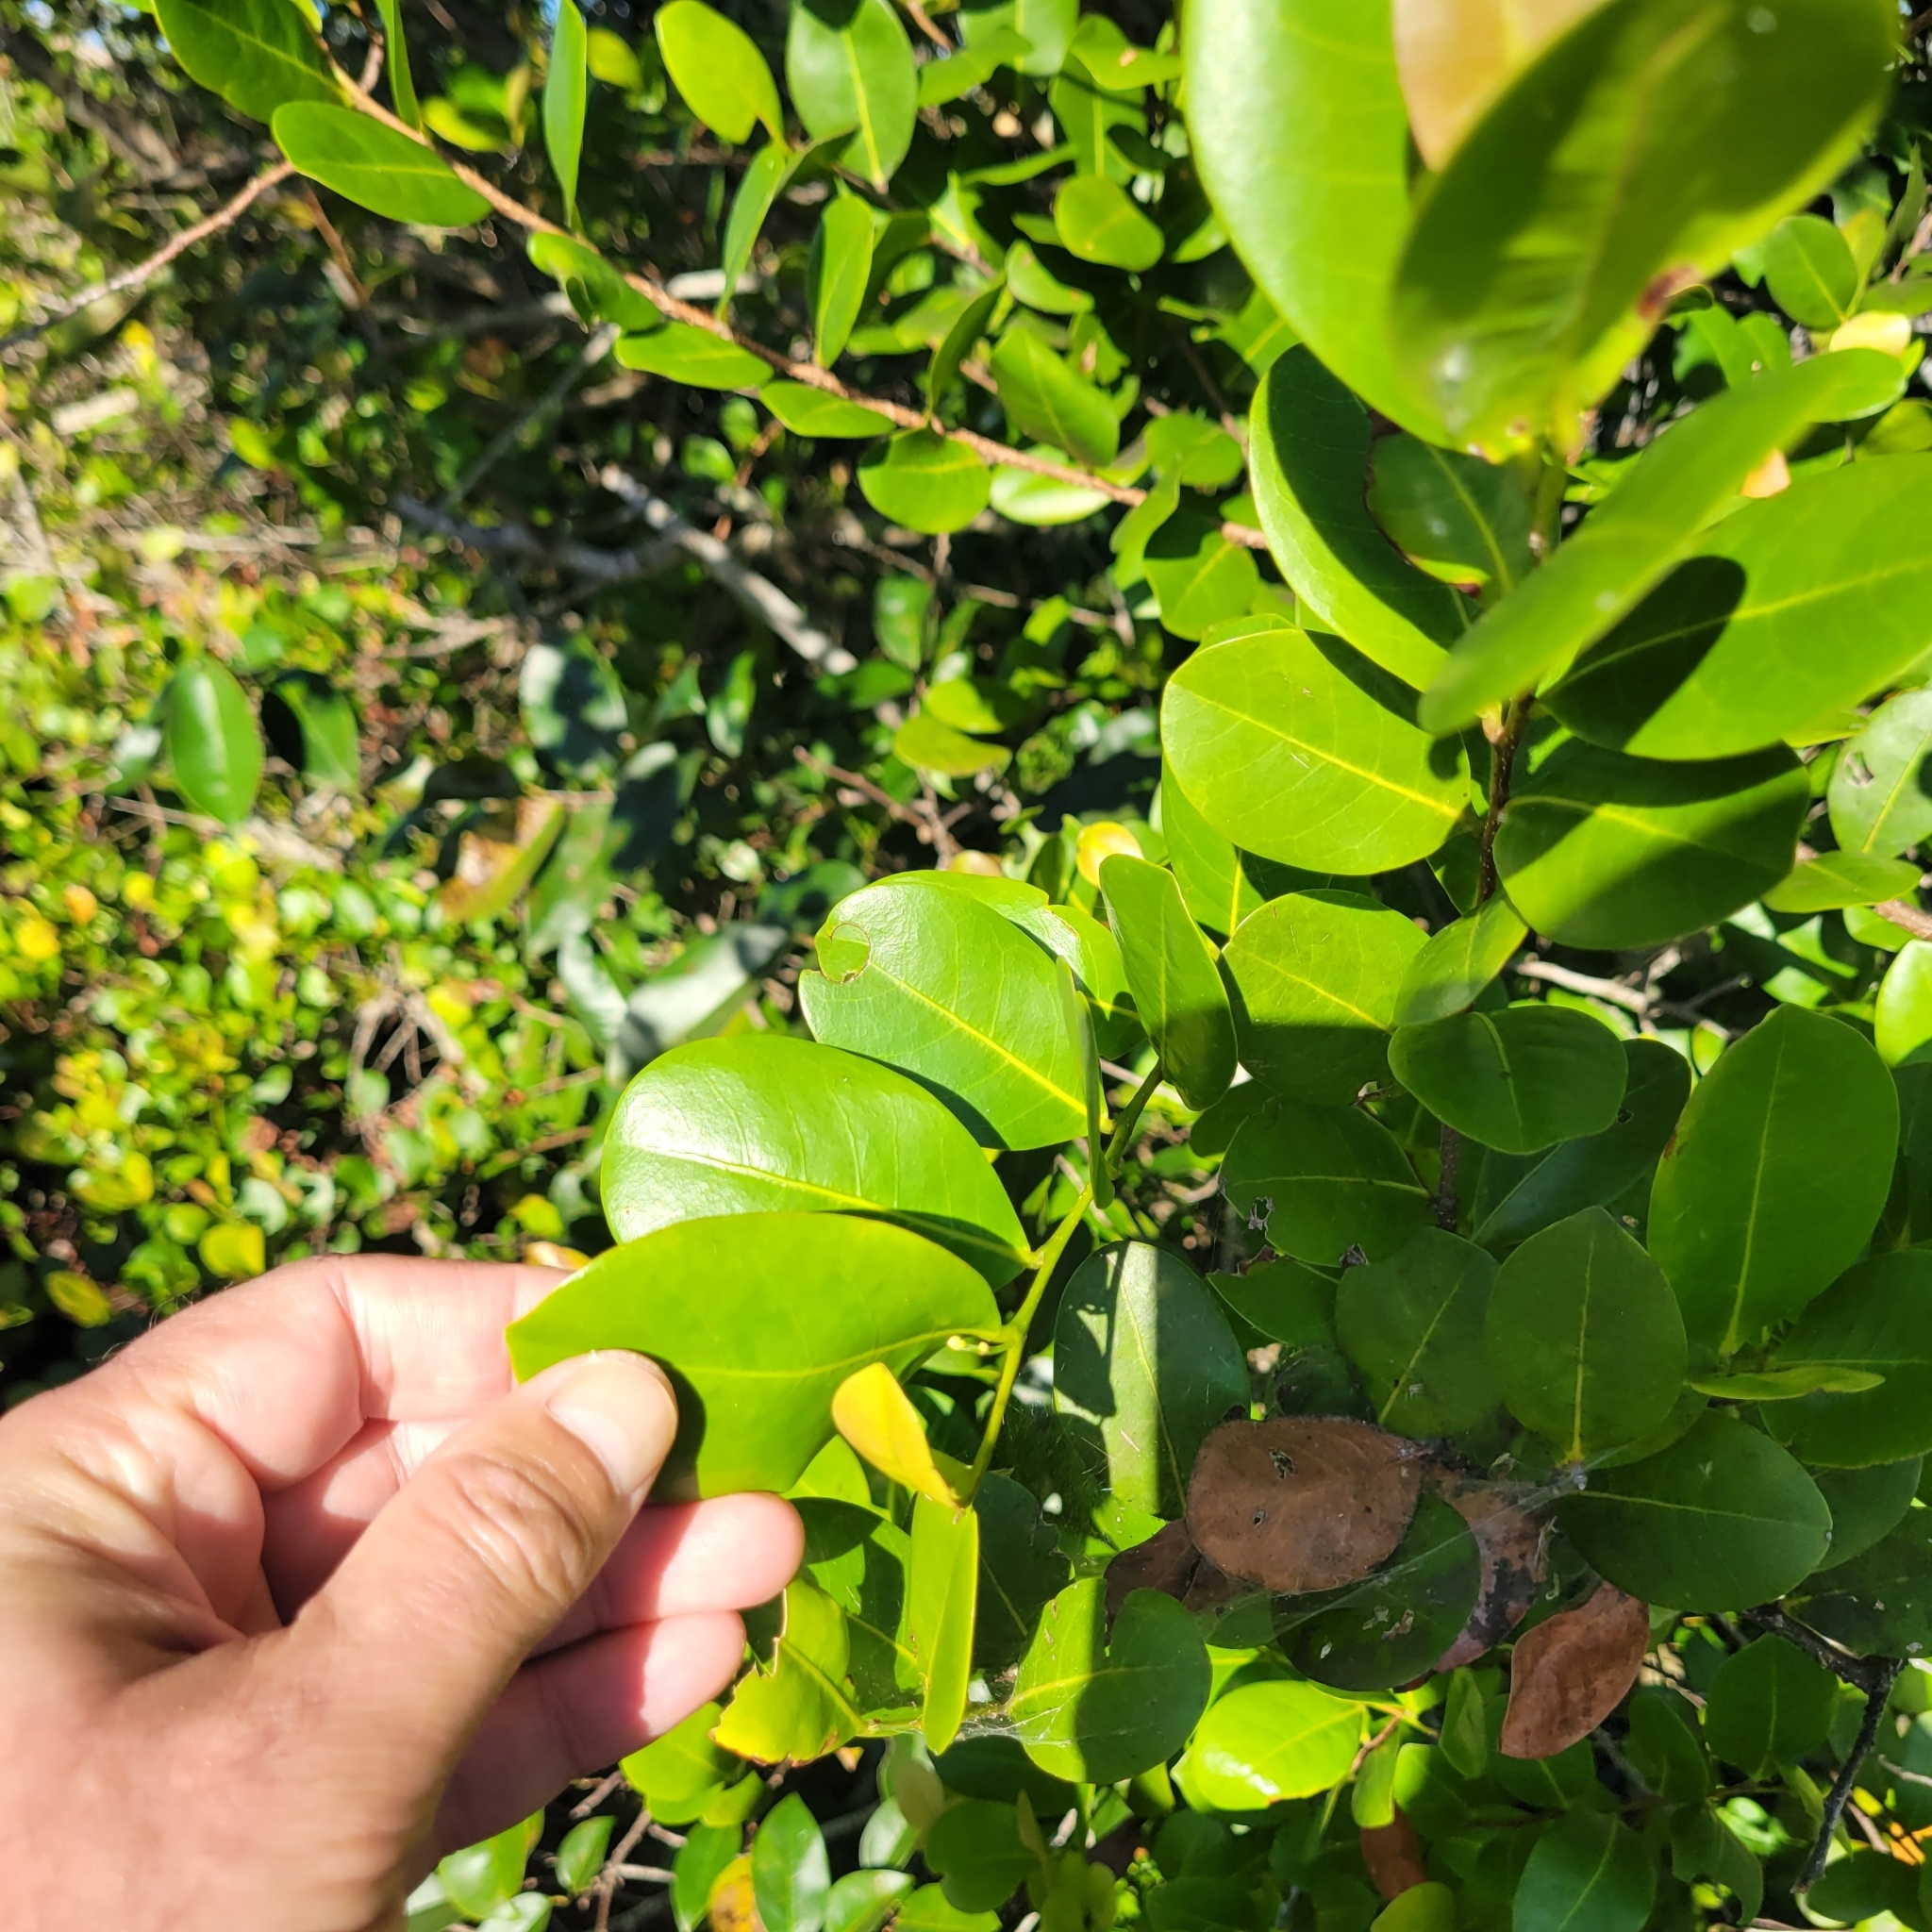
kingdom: Plantae
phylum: Tracheophyta
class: Magnoliopsida
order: Malpighiales
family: Chrysobalanaceae
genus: Chrysobalanus
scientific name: Chrysobalanus icaco
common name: Coco plum
